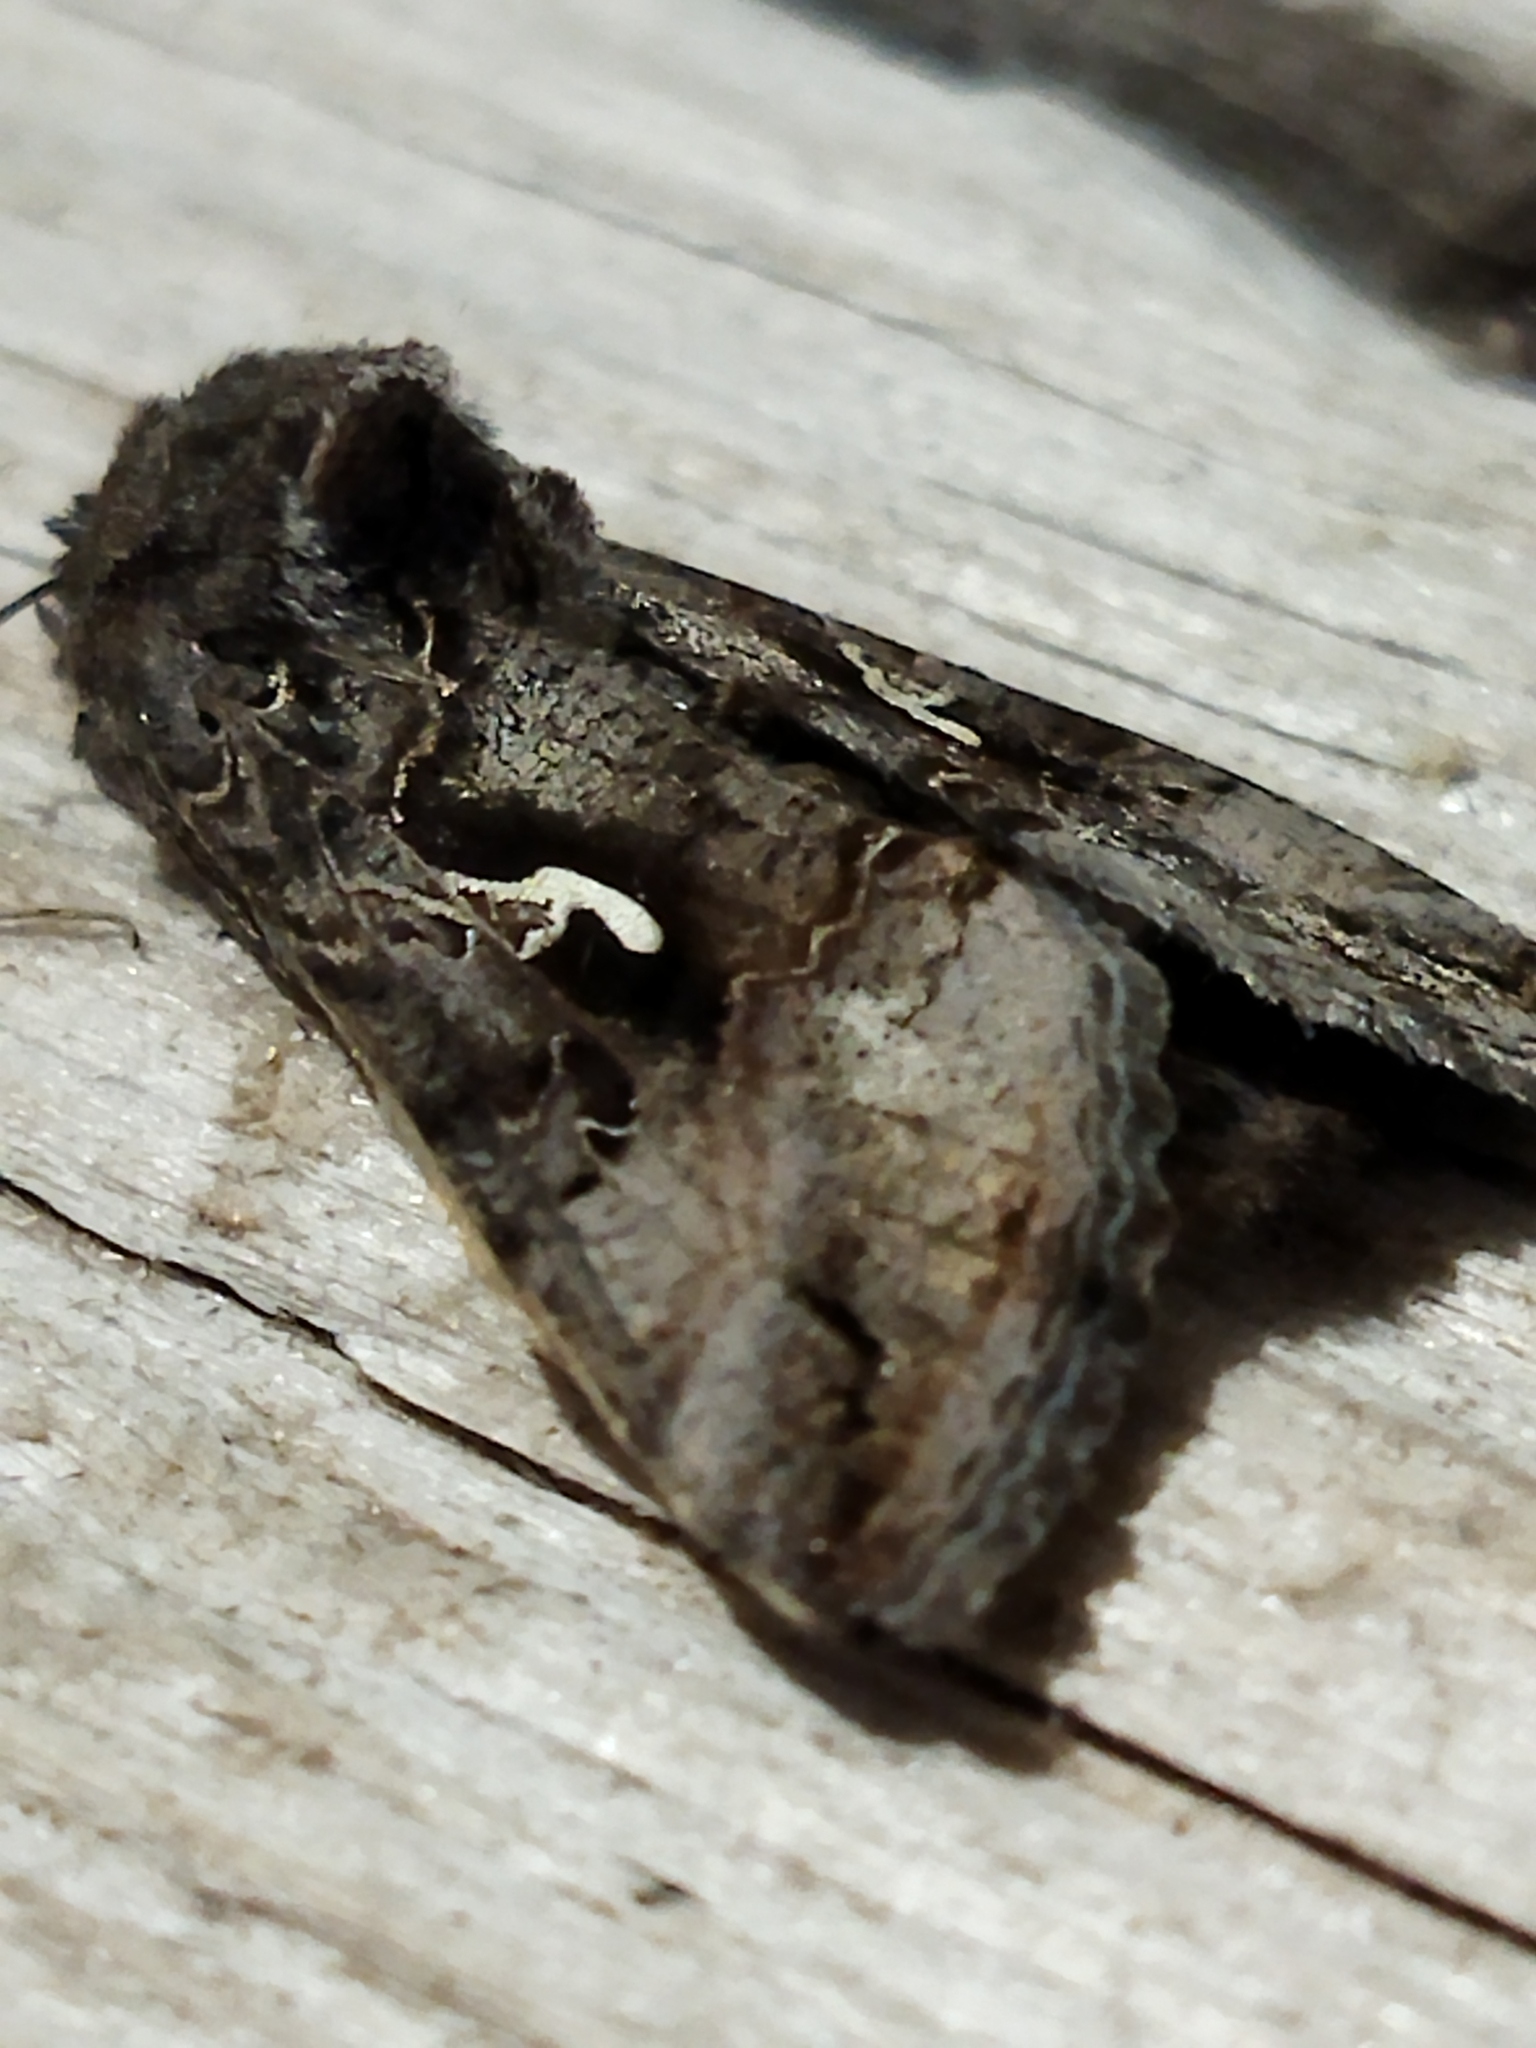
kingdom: Animalia
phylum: Arthropoda
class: Insecta
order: Lepidoptera
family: Noctuidae
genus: Autographa
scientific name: Autographa gamma
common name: Silver y
